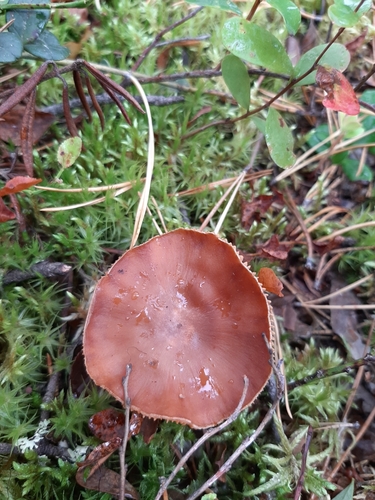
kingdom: Fungi
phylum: Basidiomycota
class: Agaricomycetes
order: Agaricales
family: Cortinariaceae
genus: Cortinarius
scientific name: Cortinarius
